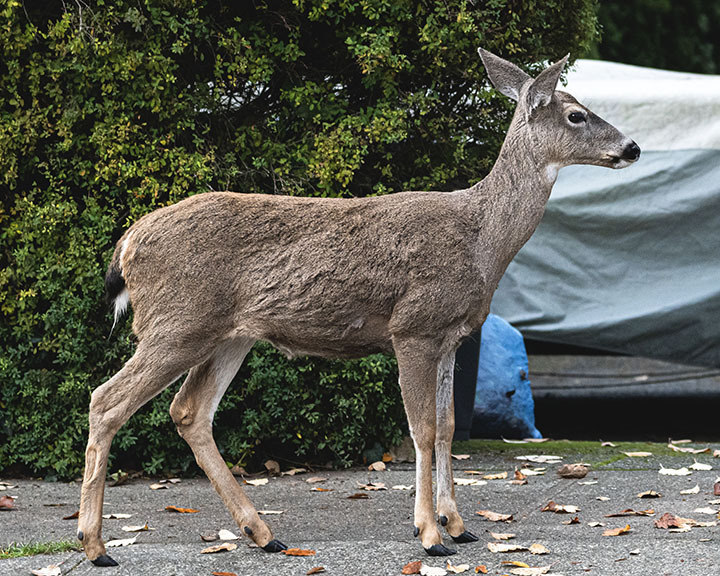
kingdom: Animalia
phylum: Chordata
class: Mammalia
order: Artiodactyla
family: Cervidae
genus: Odocoileus
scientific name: Odocoileus hemionus
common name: Mule deer
